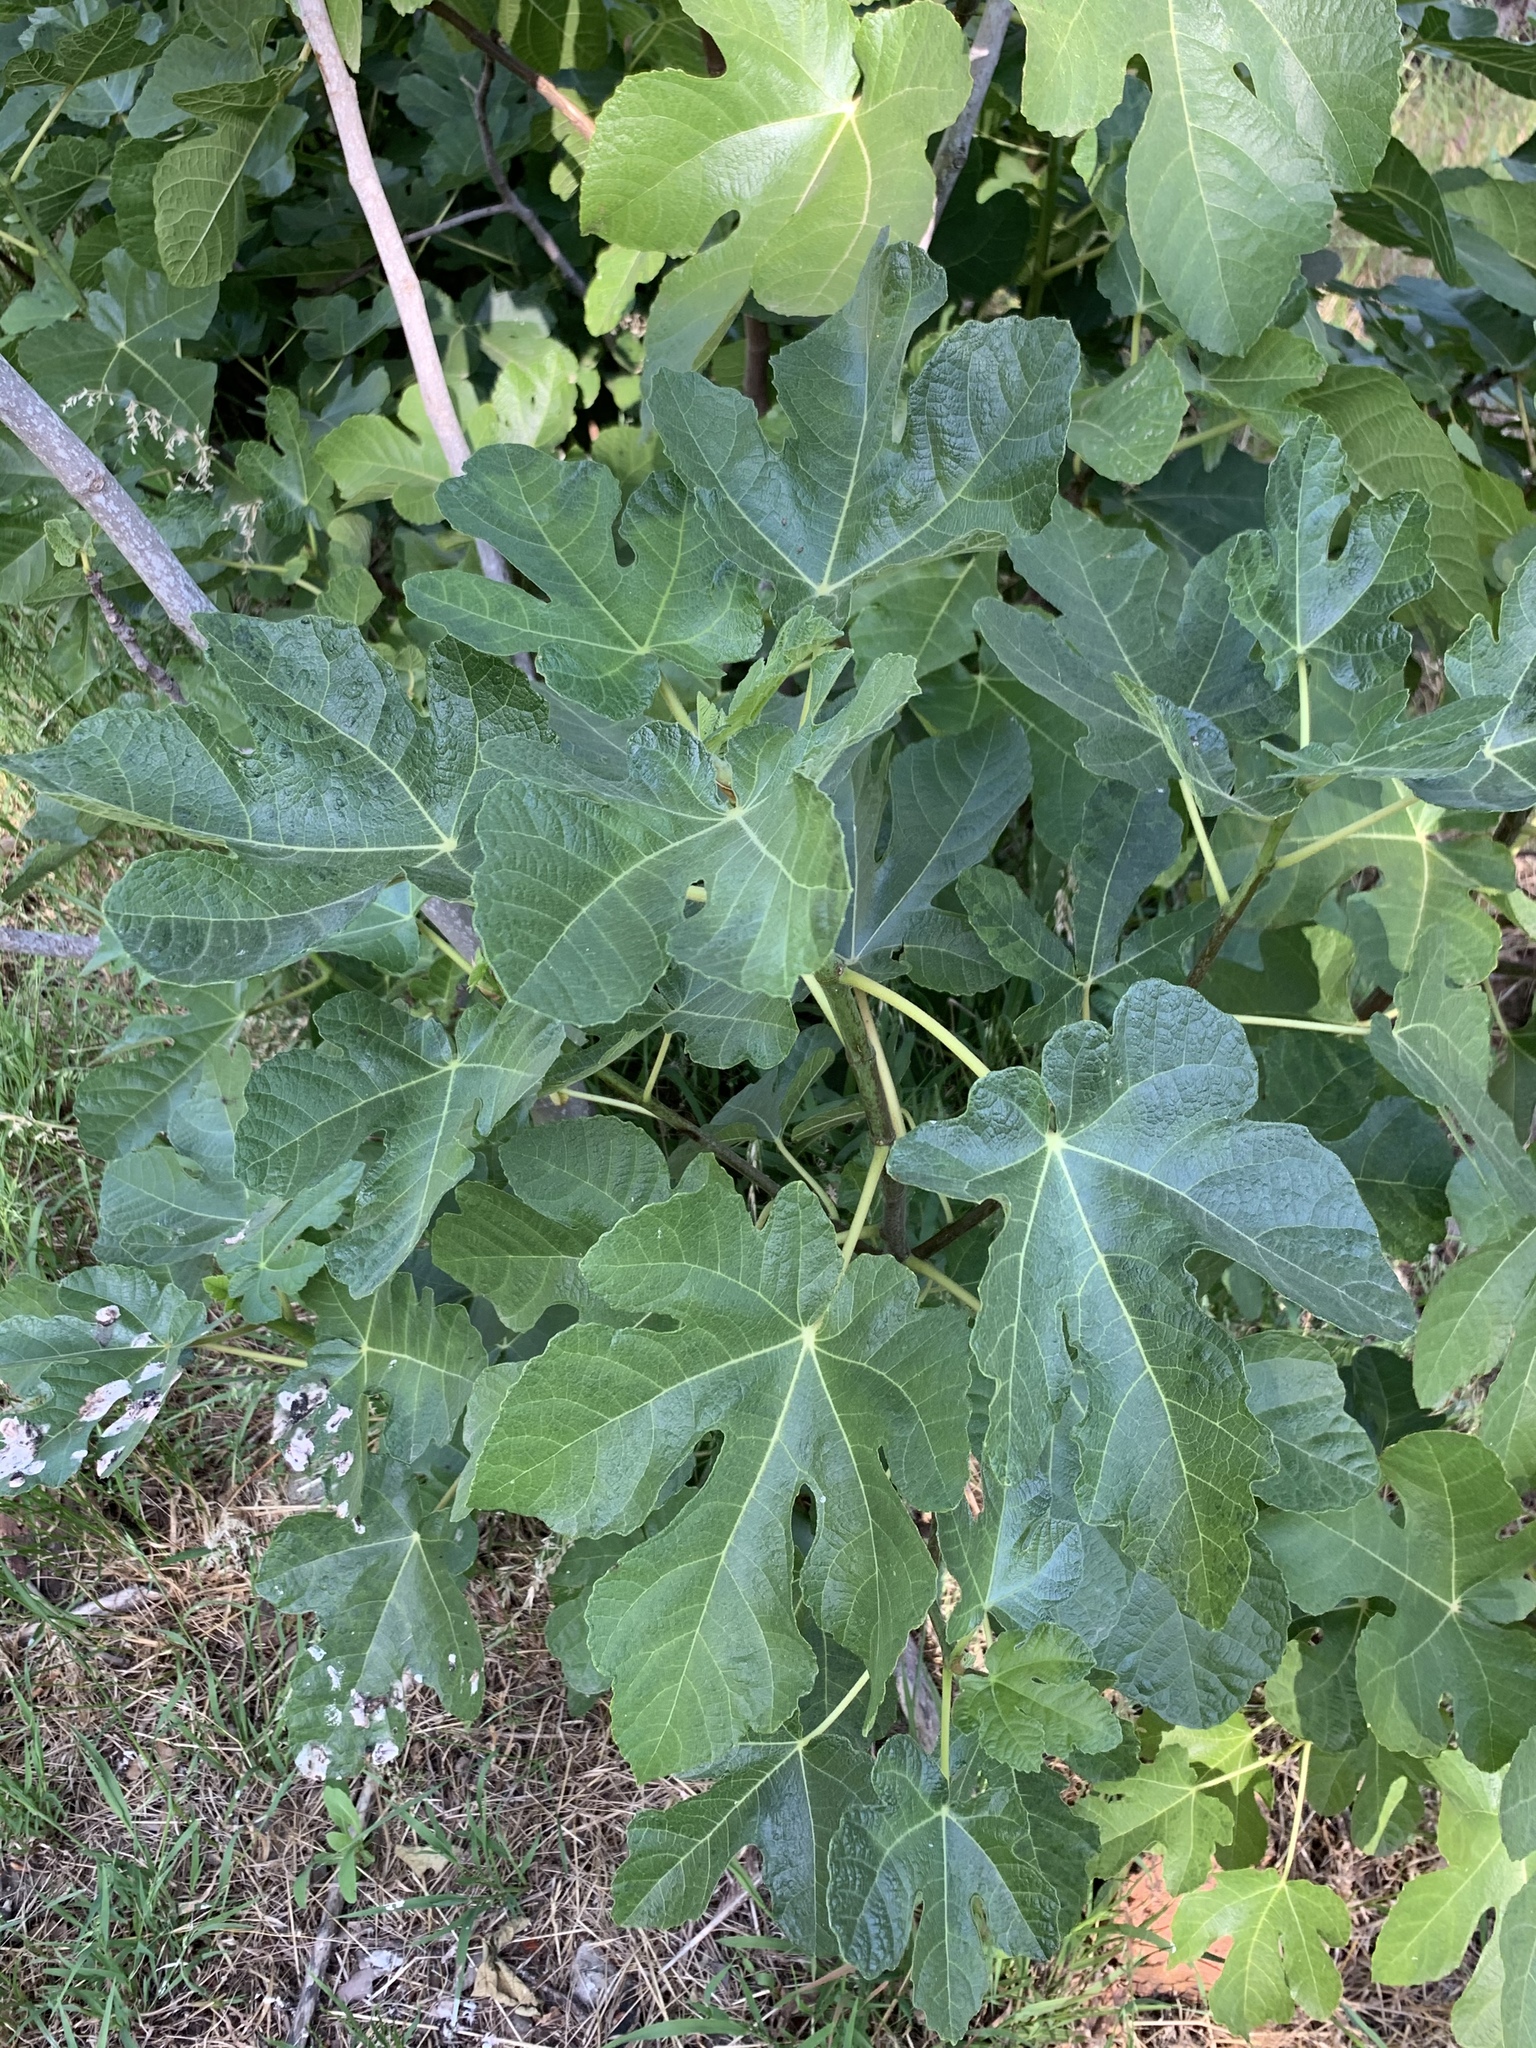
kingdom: Plantae
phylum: Tracheophyta
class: Magnoliopsida
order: Rosales
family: Moraceae
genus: Ficus
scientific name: Ficus carica
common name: Fig
